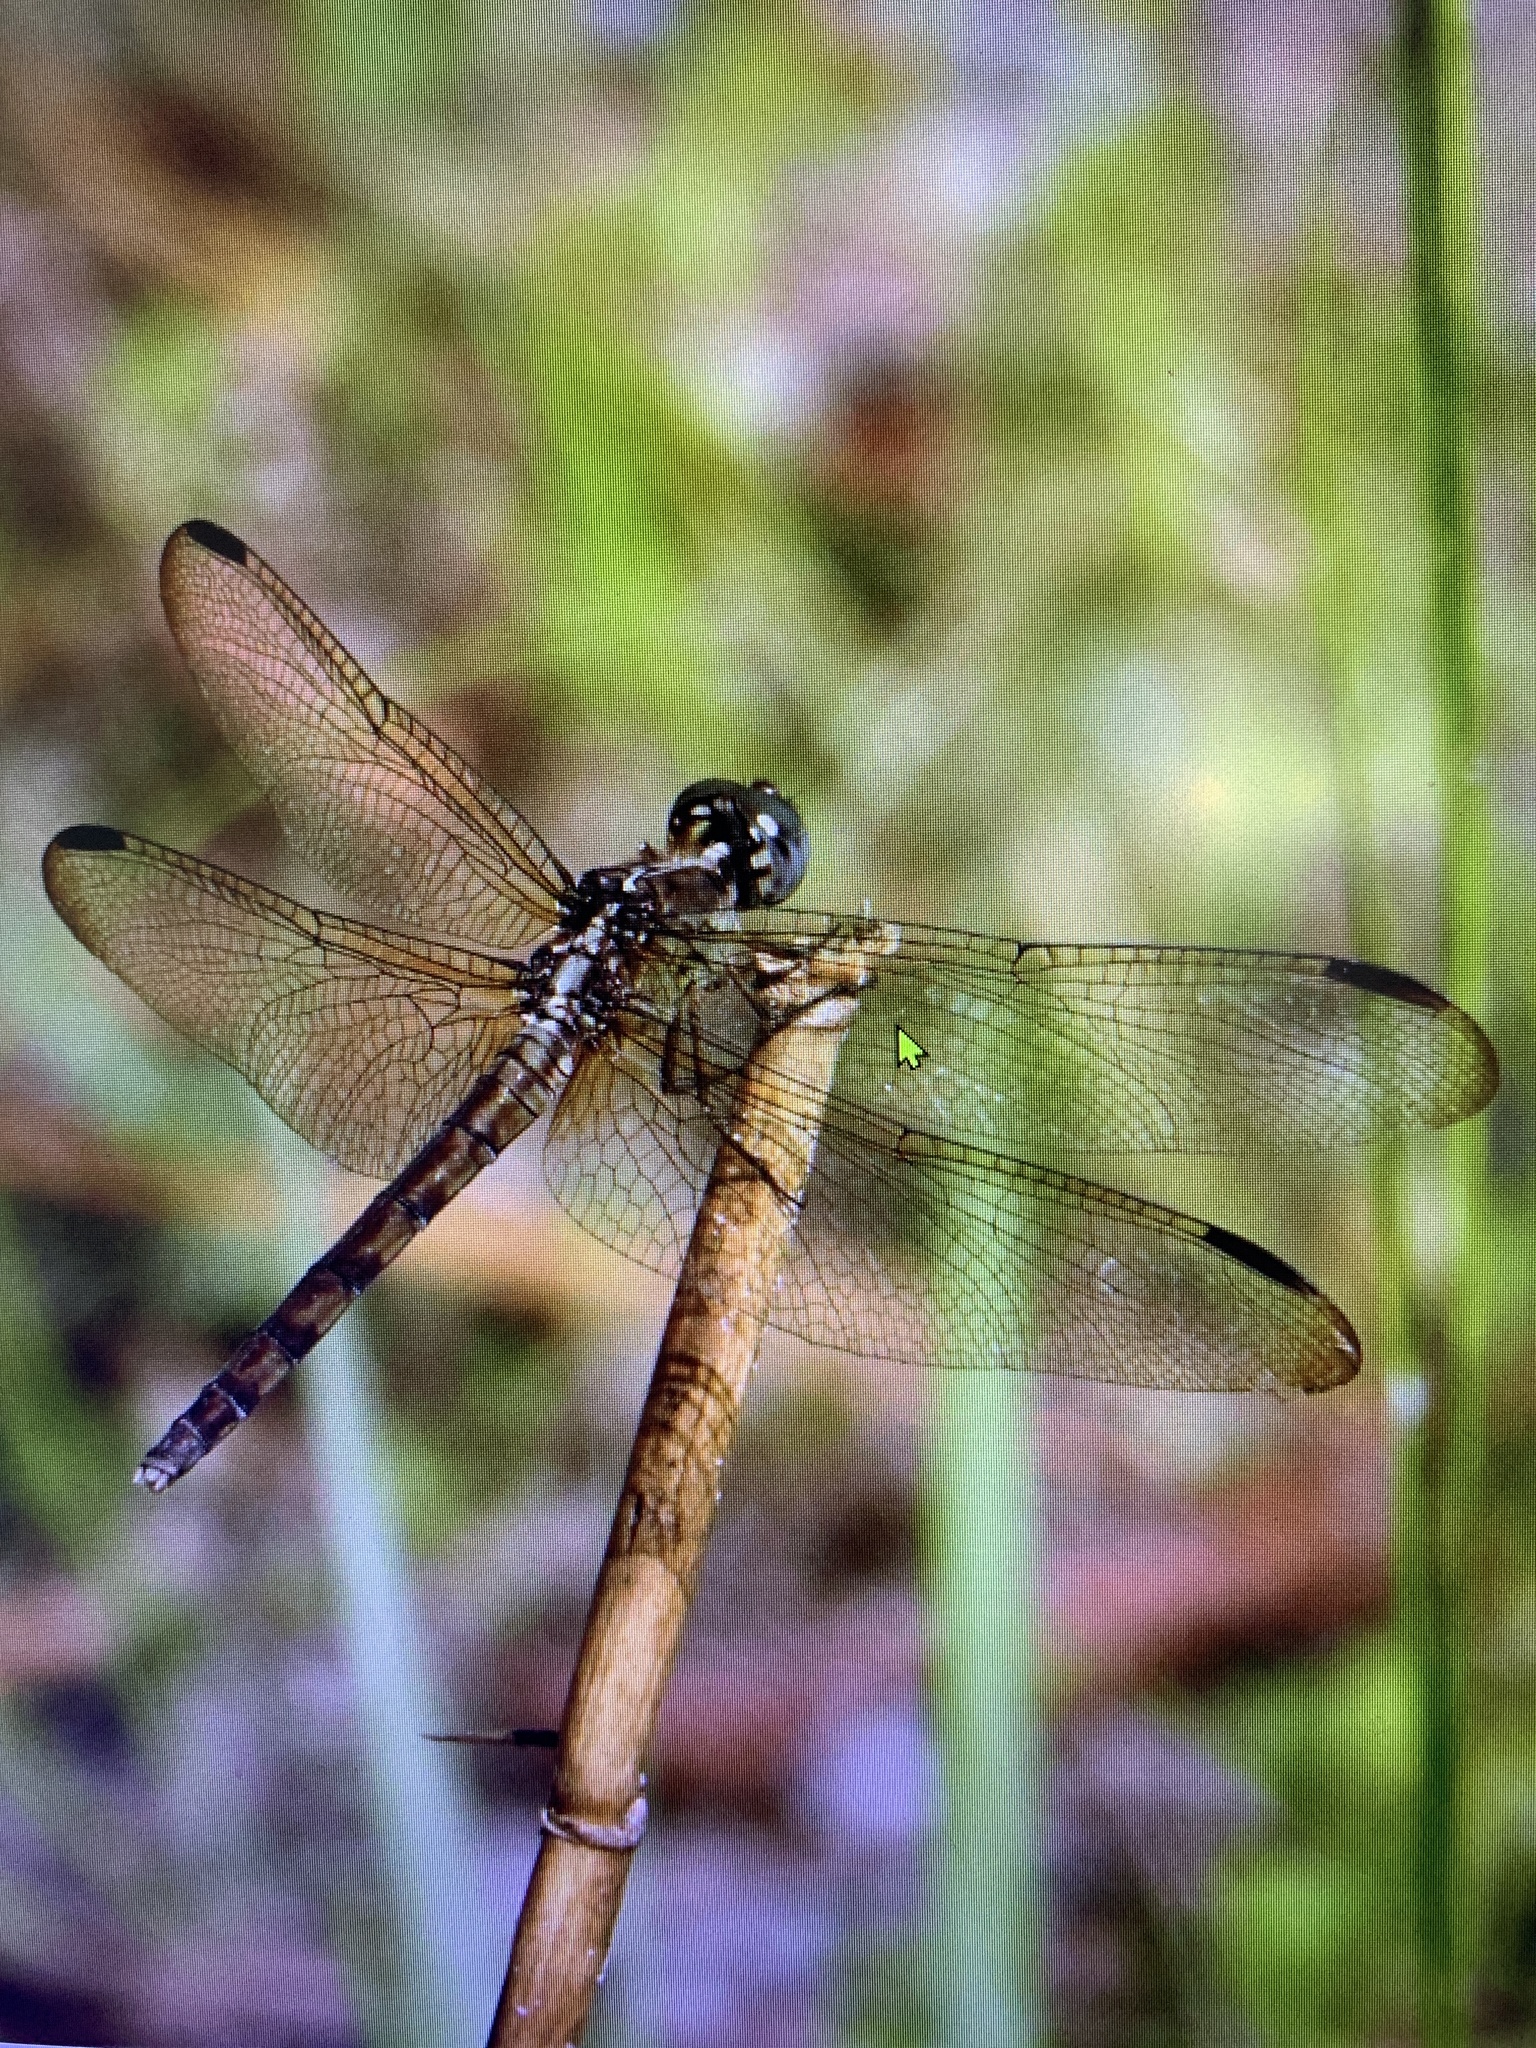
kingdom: Animalia
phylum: Arthropoda
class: Insecta
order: Odonata
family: Libellulidae
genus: Erythrodiplax
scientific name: Erythrodiplax umbrata
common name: Band-winged dragonlet
